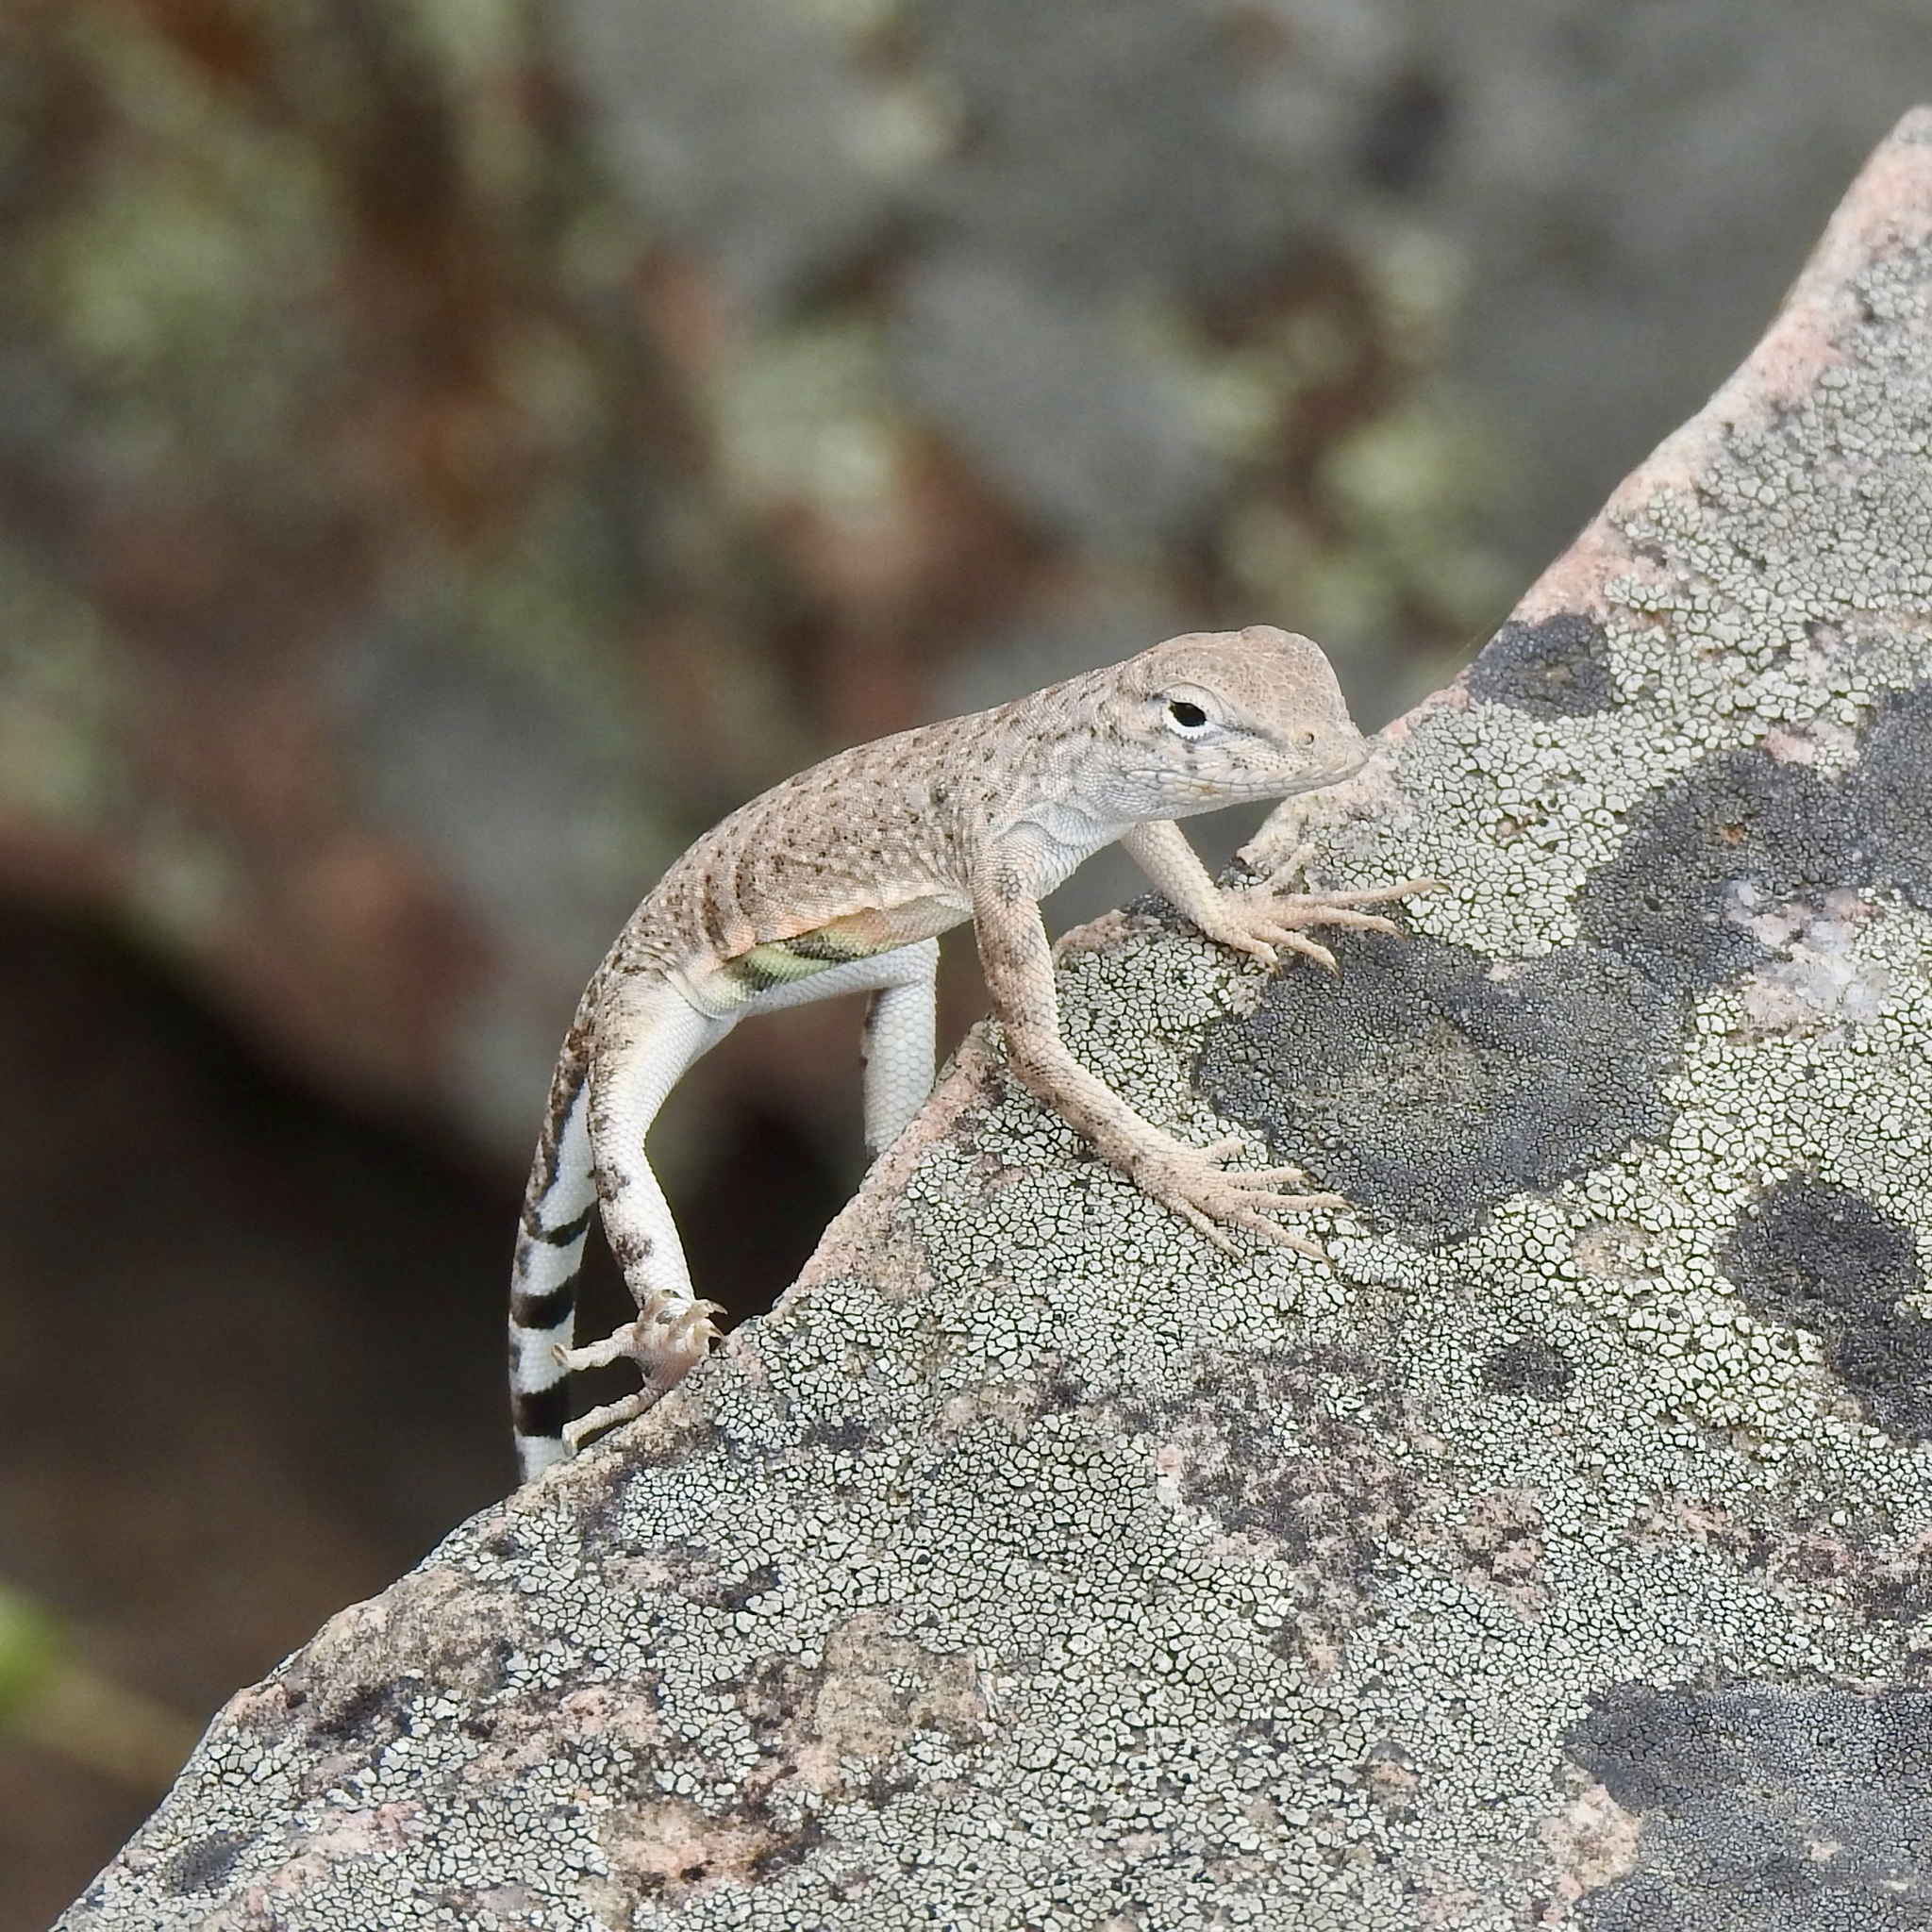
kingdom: Animalia
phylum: Chordata
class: Squamata
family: Phrynosomatidae
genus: Cophosaurus
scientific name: Cophosaurus texanus
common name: Greater earless lizard
